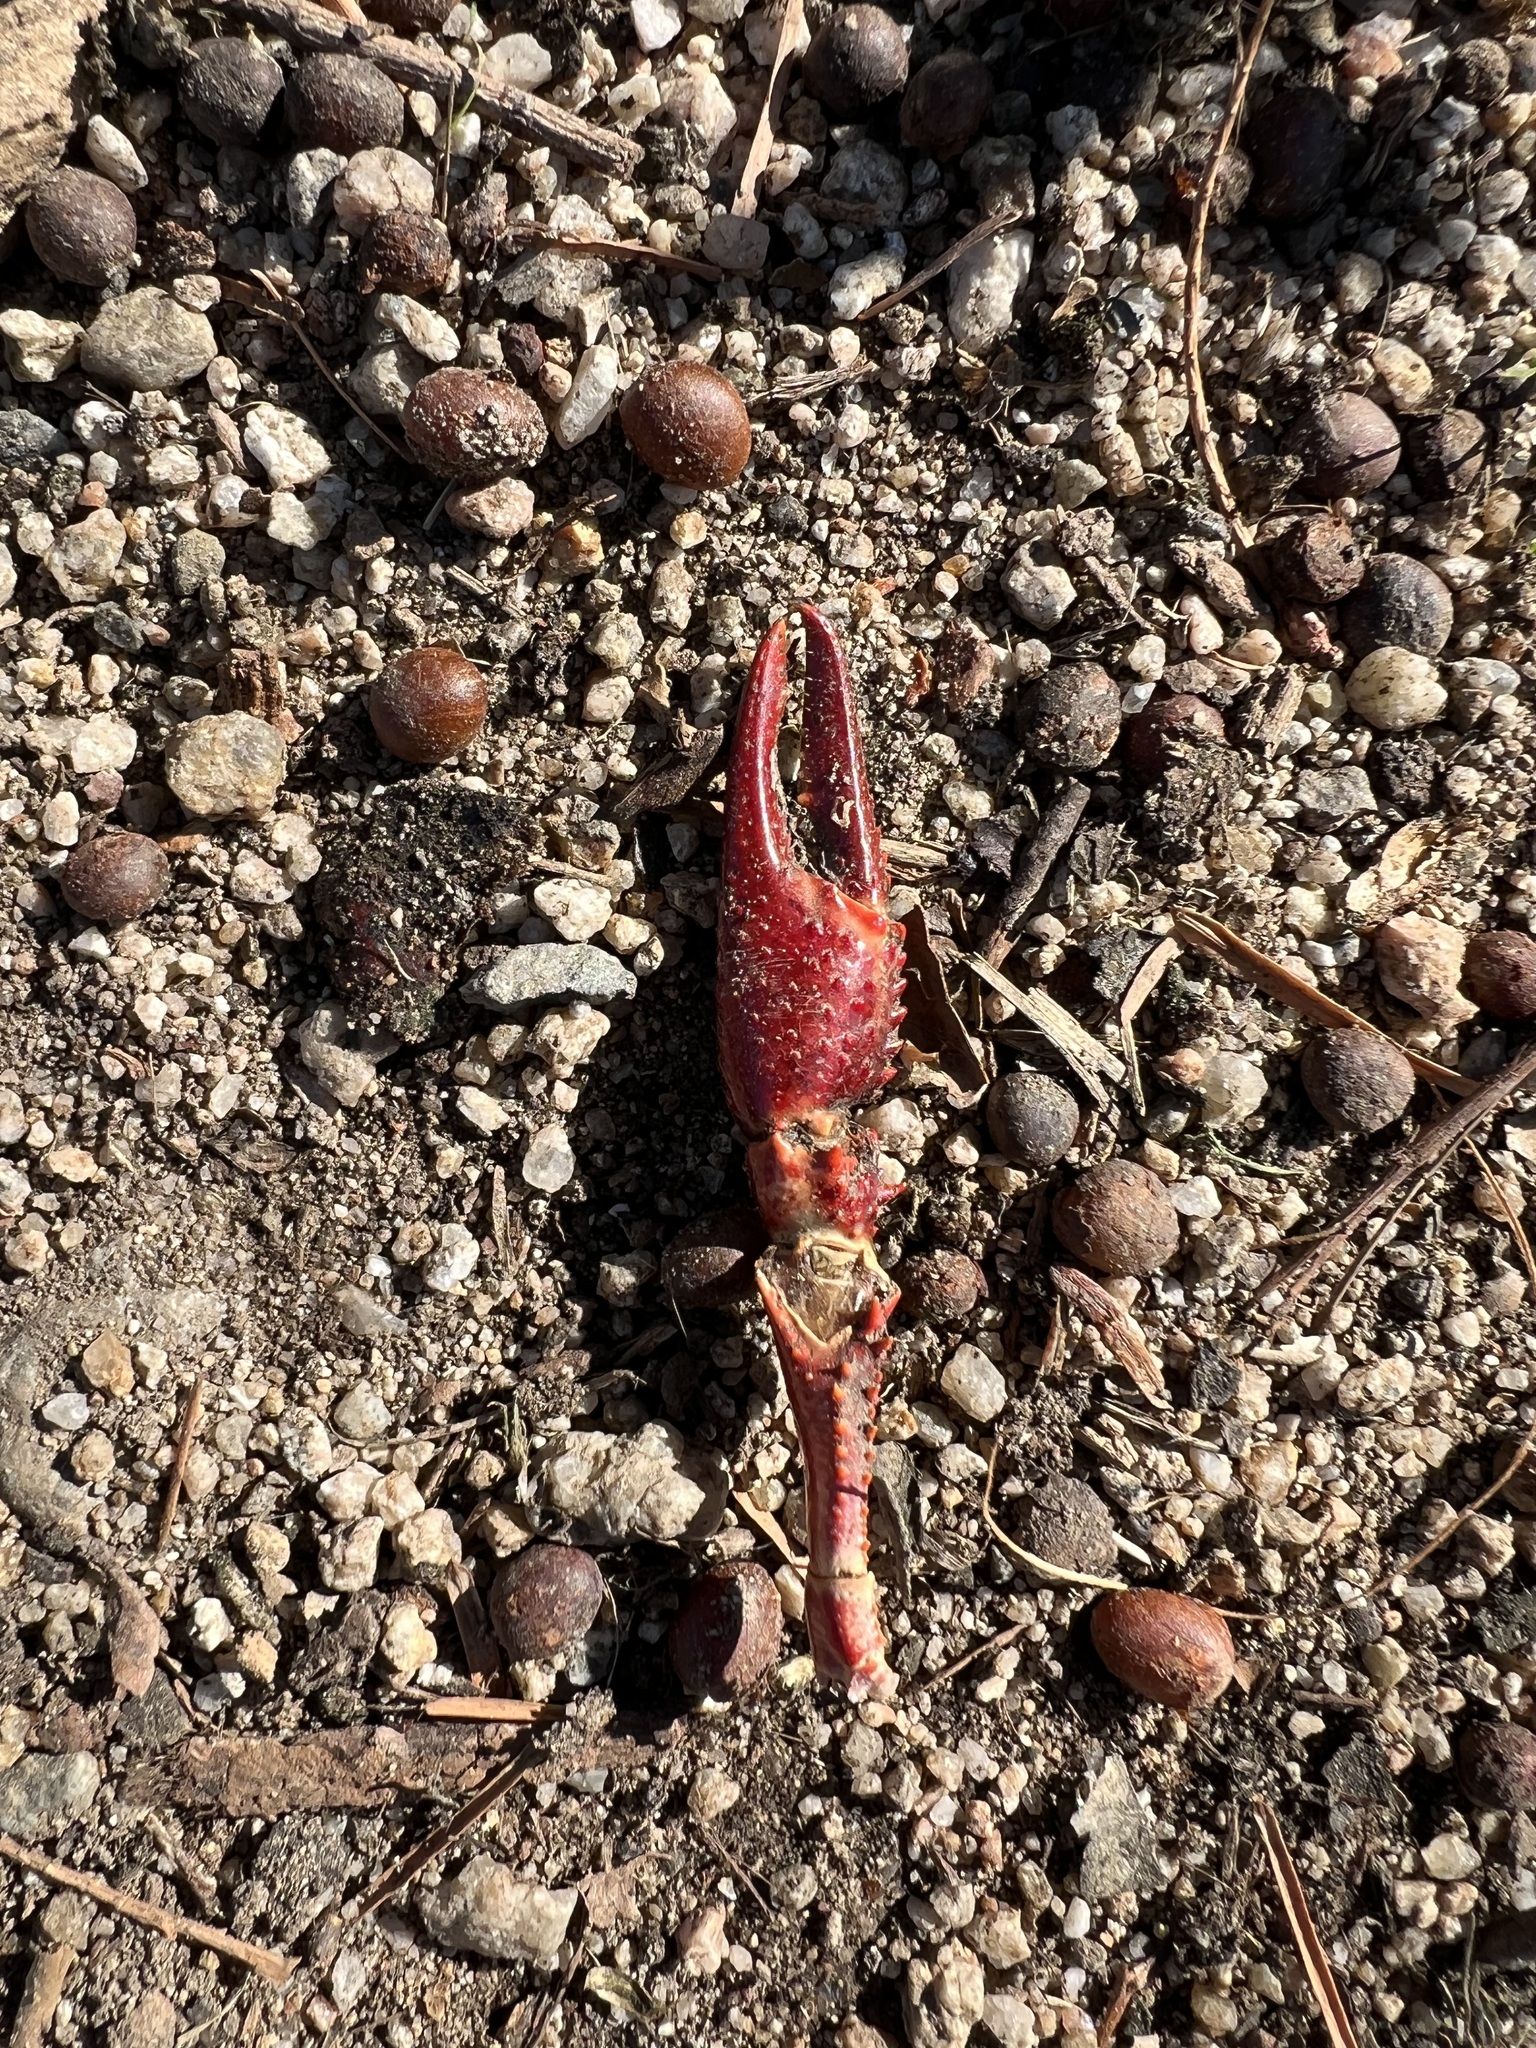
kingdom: Animalia
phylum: Arthropoda
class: Malacostraca
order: Decapoda
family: Cambaridae
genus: Procambarus
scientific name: Procambarus clarkii
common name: Red swamp crayfish
